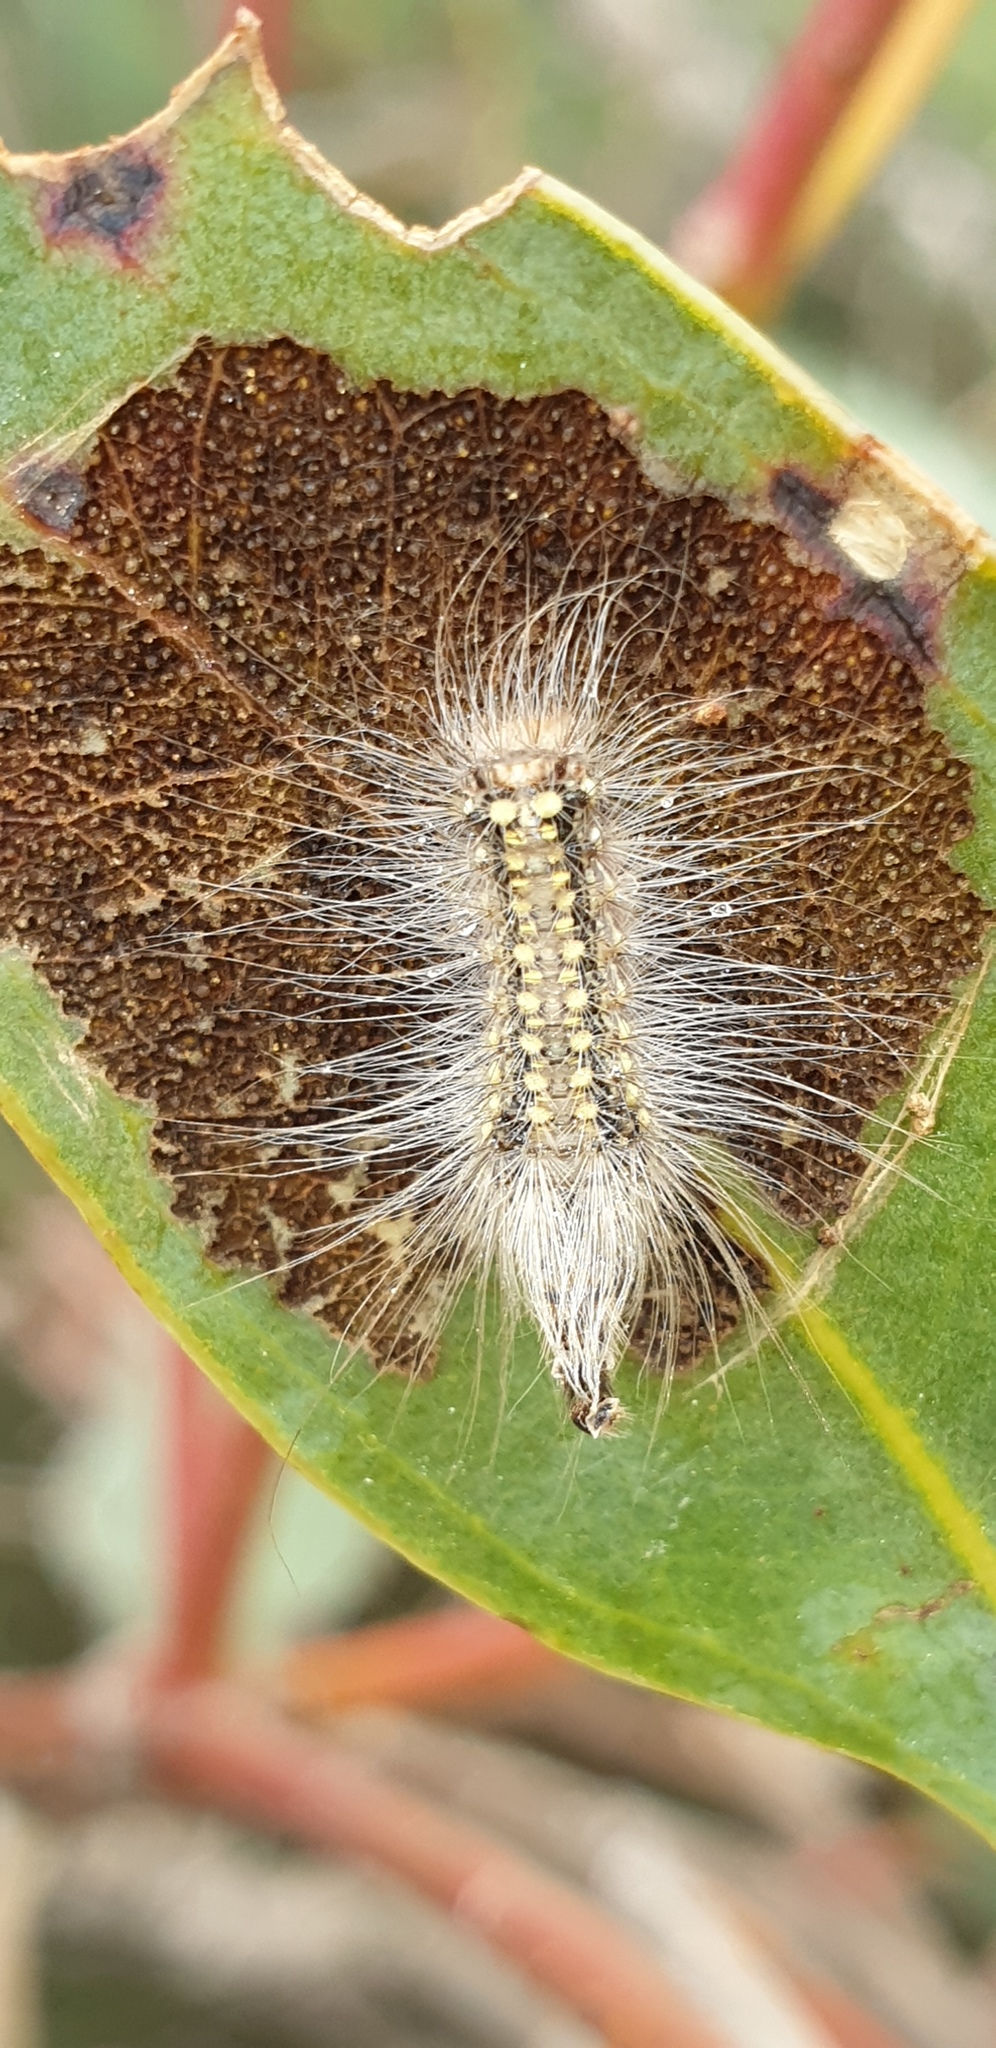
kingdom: Animalia
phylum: Arthropoda
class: Insecta
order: Lepidoptera
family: Nolidae
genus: Uraba
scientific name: Uraba lugens
